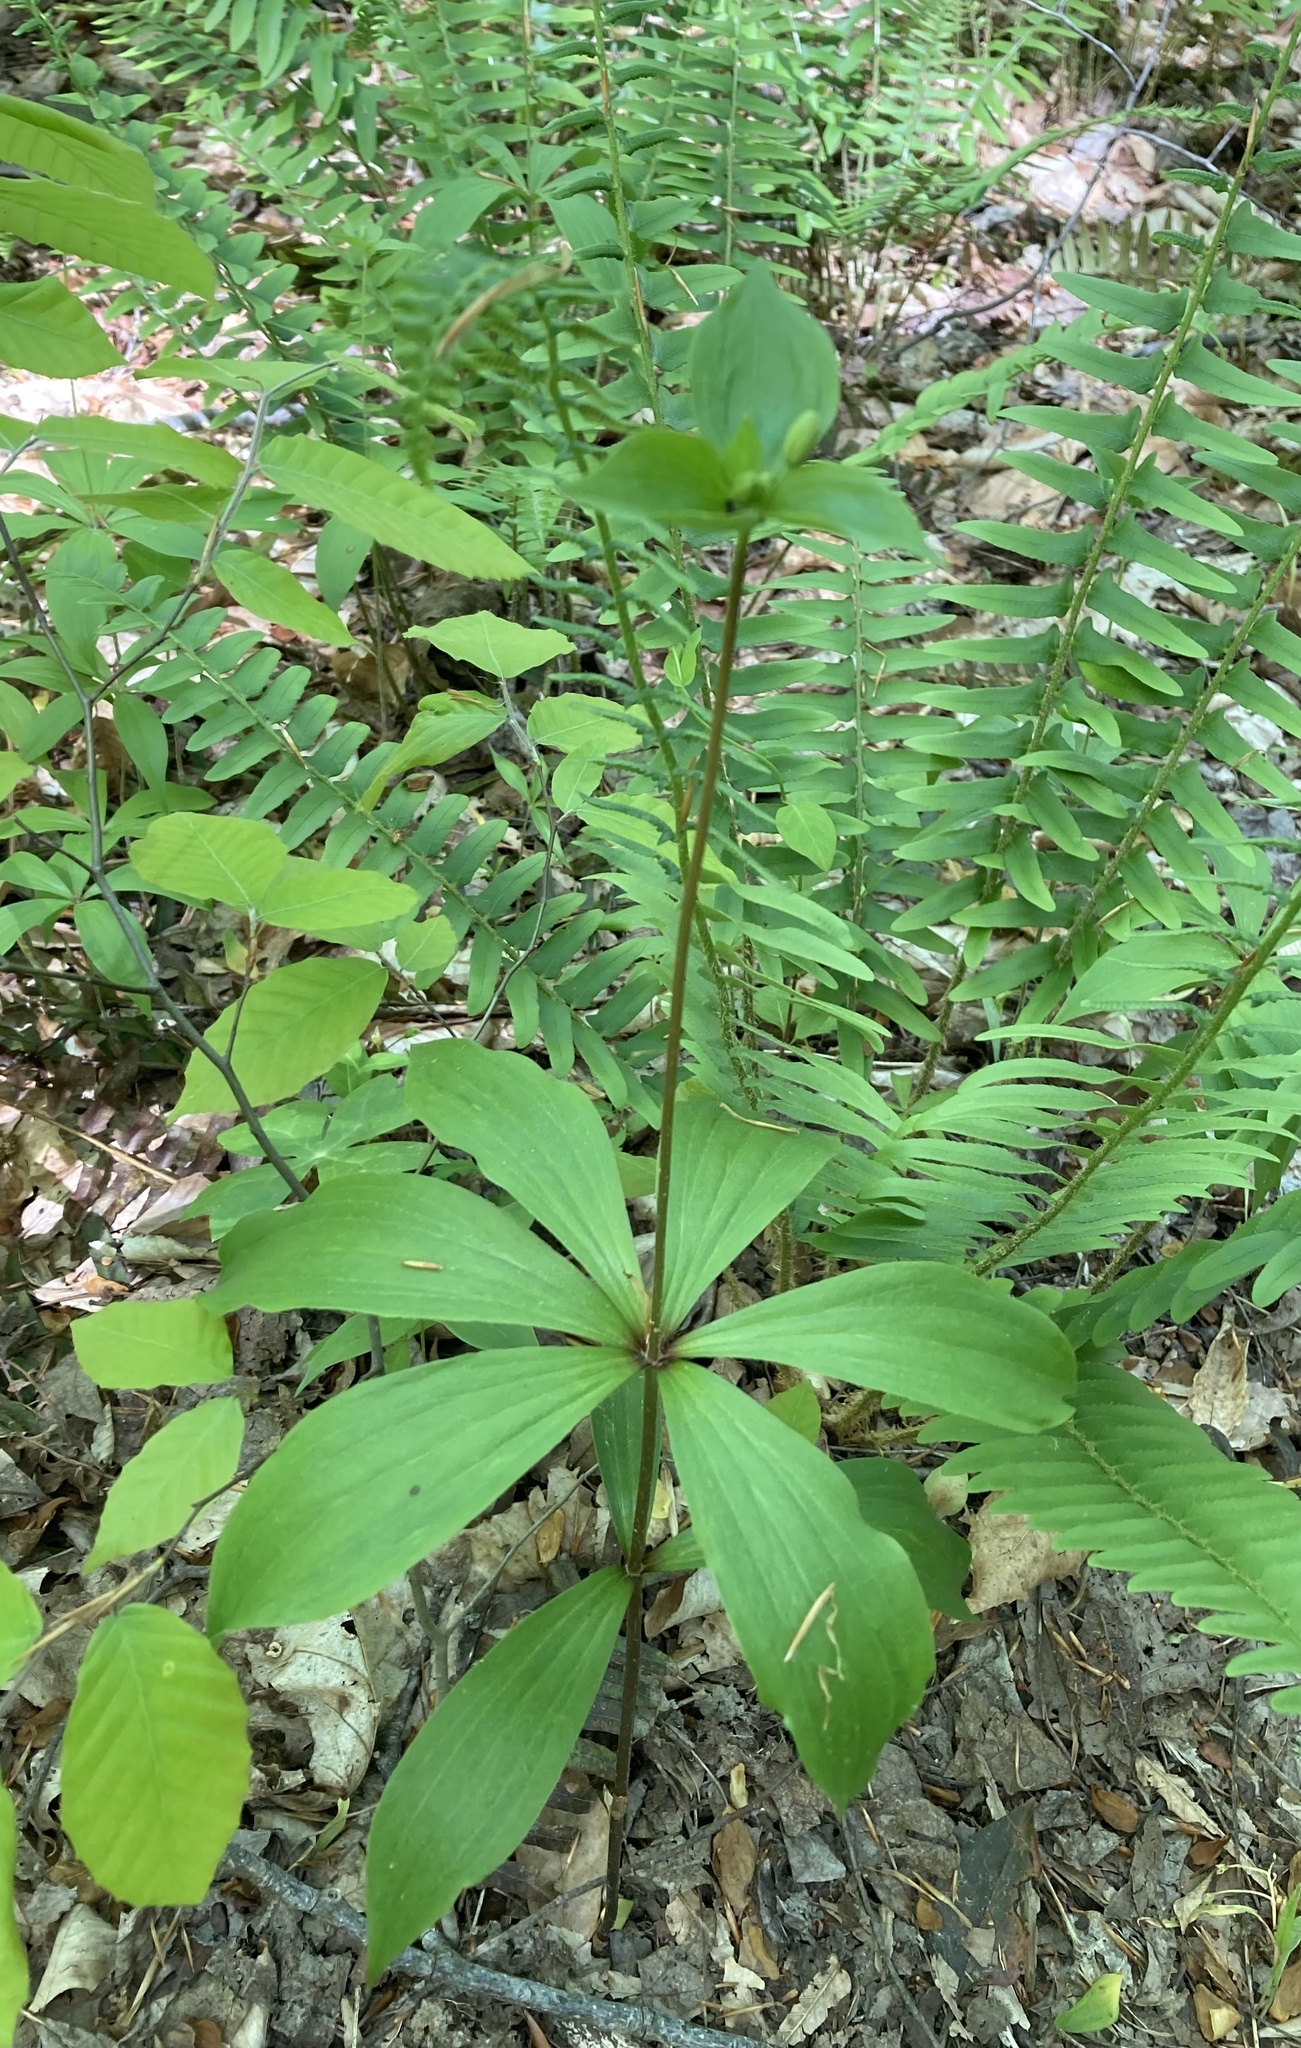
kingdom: Plantae
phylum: Tracheophyta
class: Liliopsida
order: Liliales
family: Liliaceae
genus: Medeola
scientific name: Medeola virginiana
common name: Indian cucumber-root
